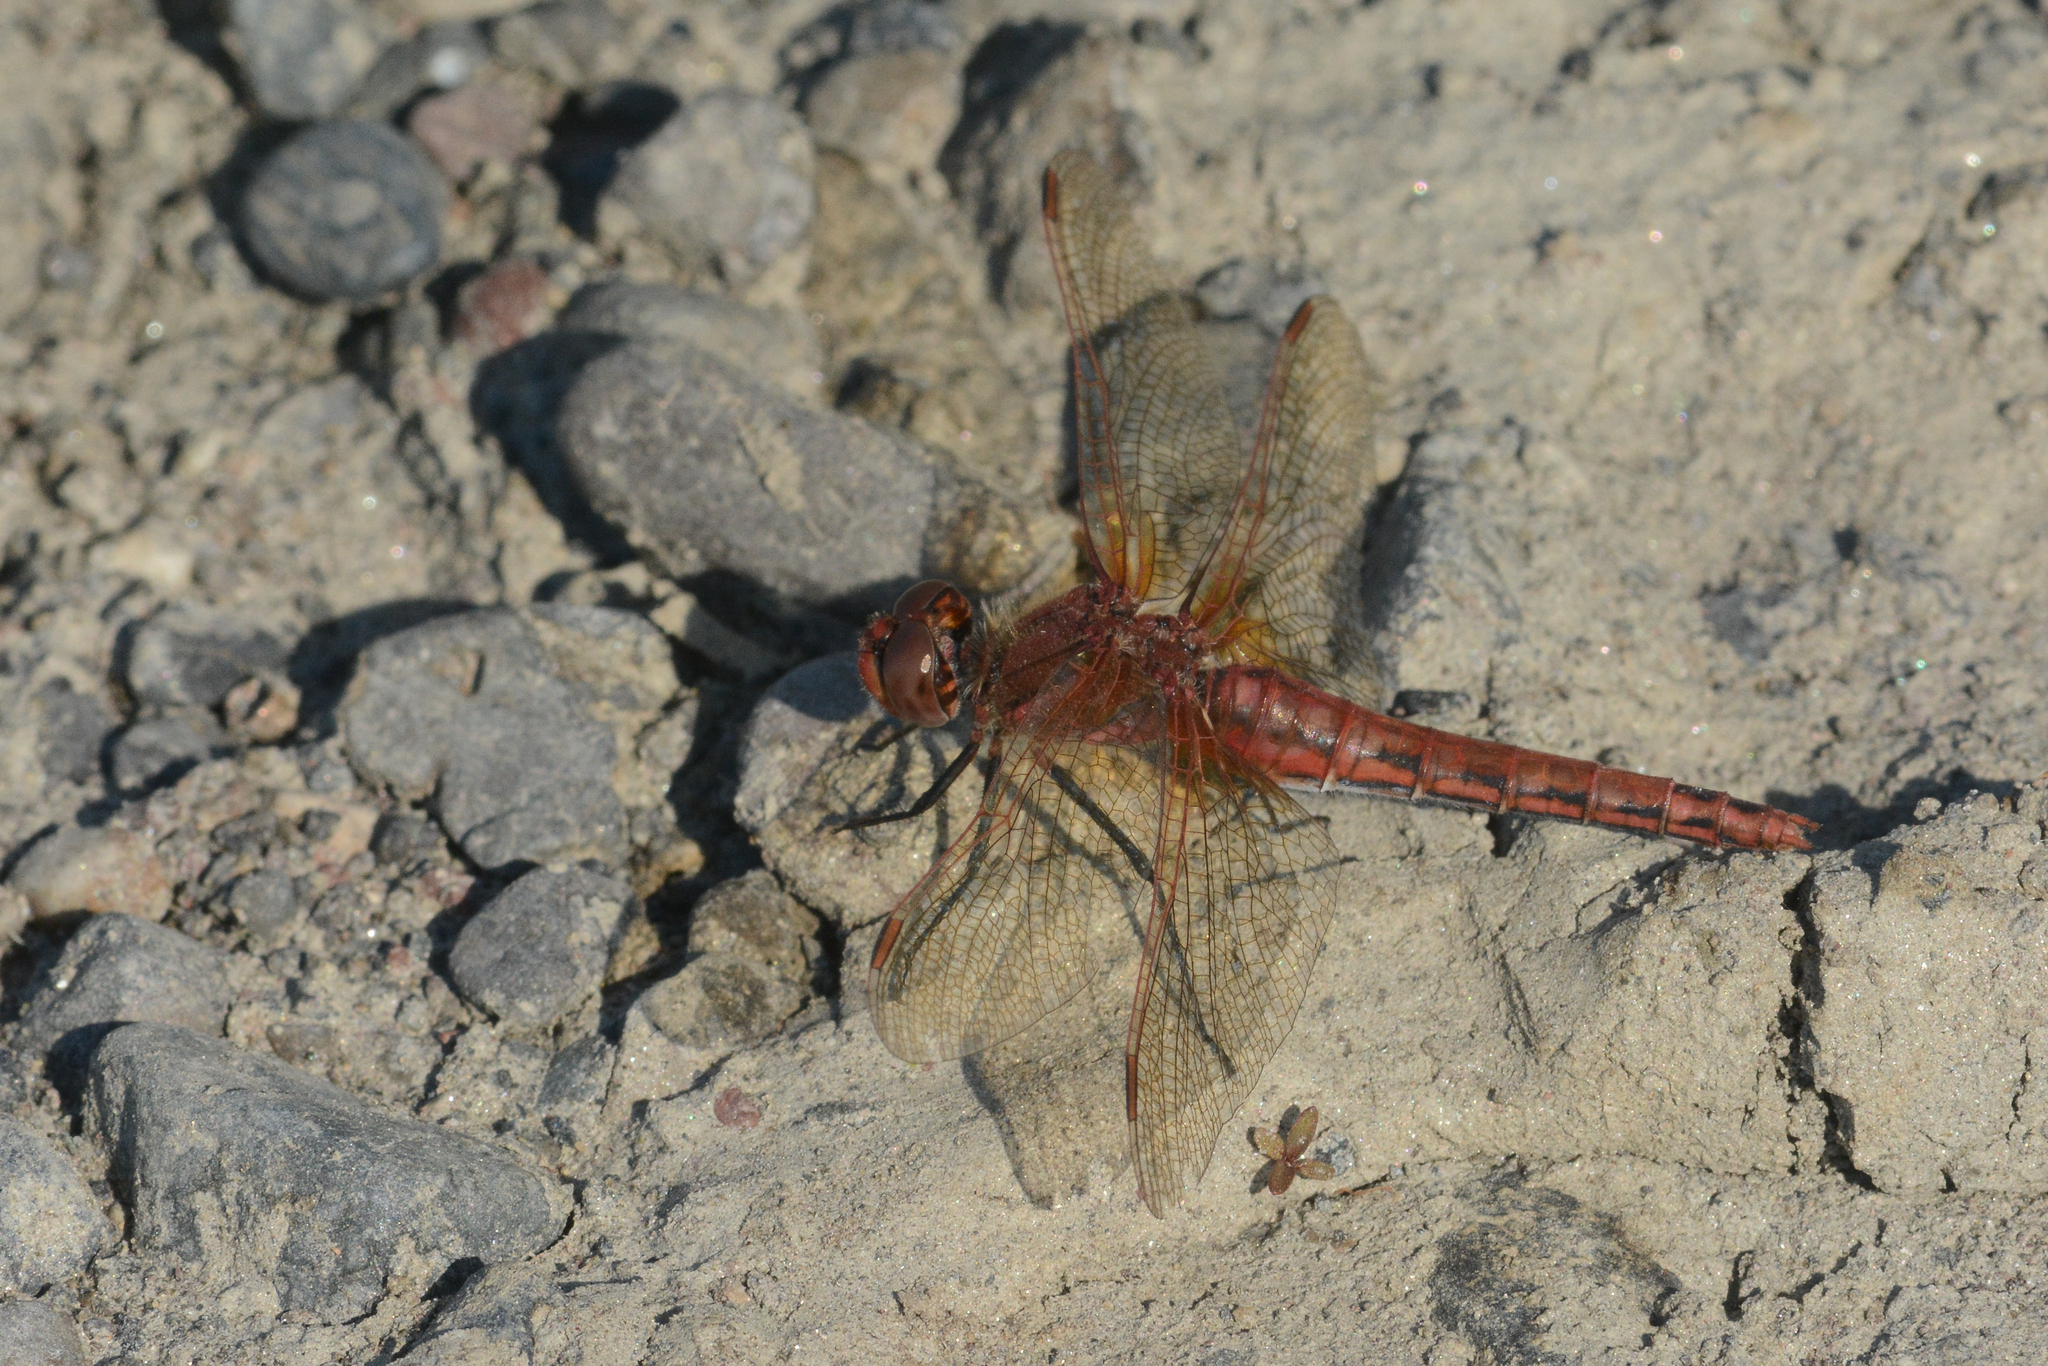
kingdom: Animalia
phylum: Arthropoda
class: Insecta
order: Odonata
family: Libellulidae
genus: Sympetrum
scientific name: Sympetrum madidum
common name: Red-veined meadowhawk
